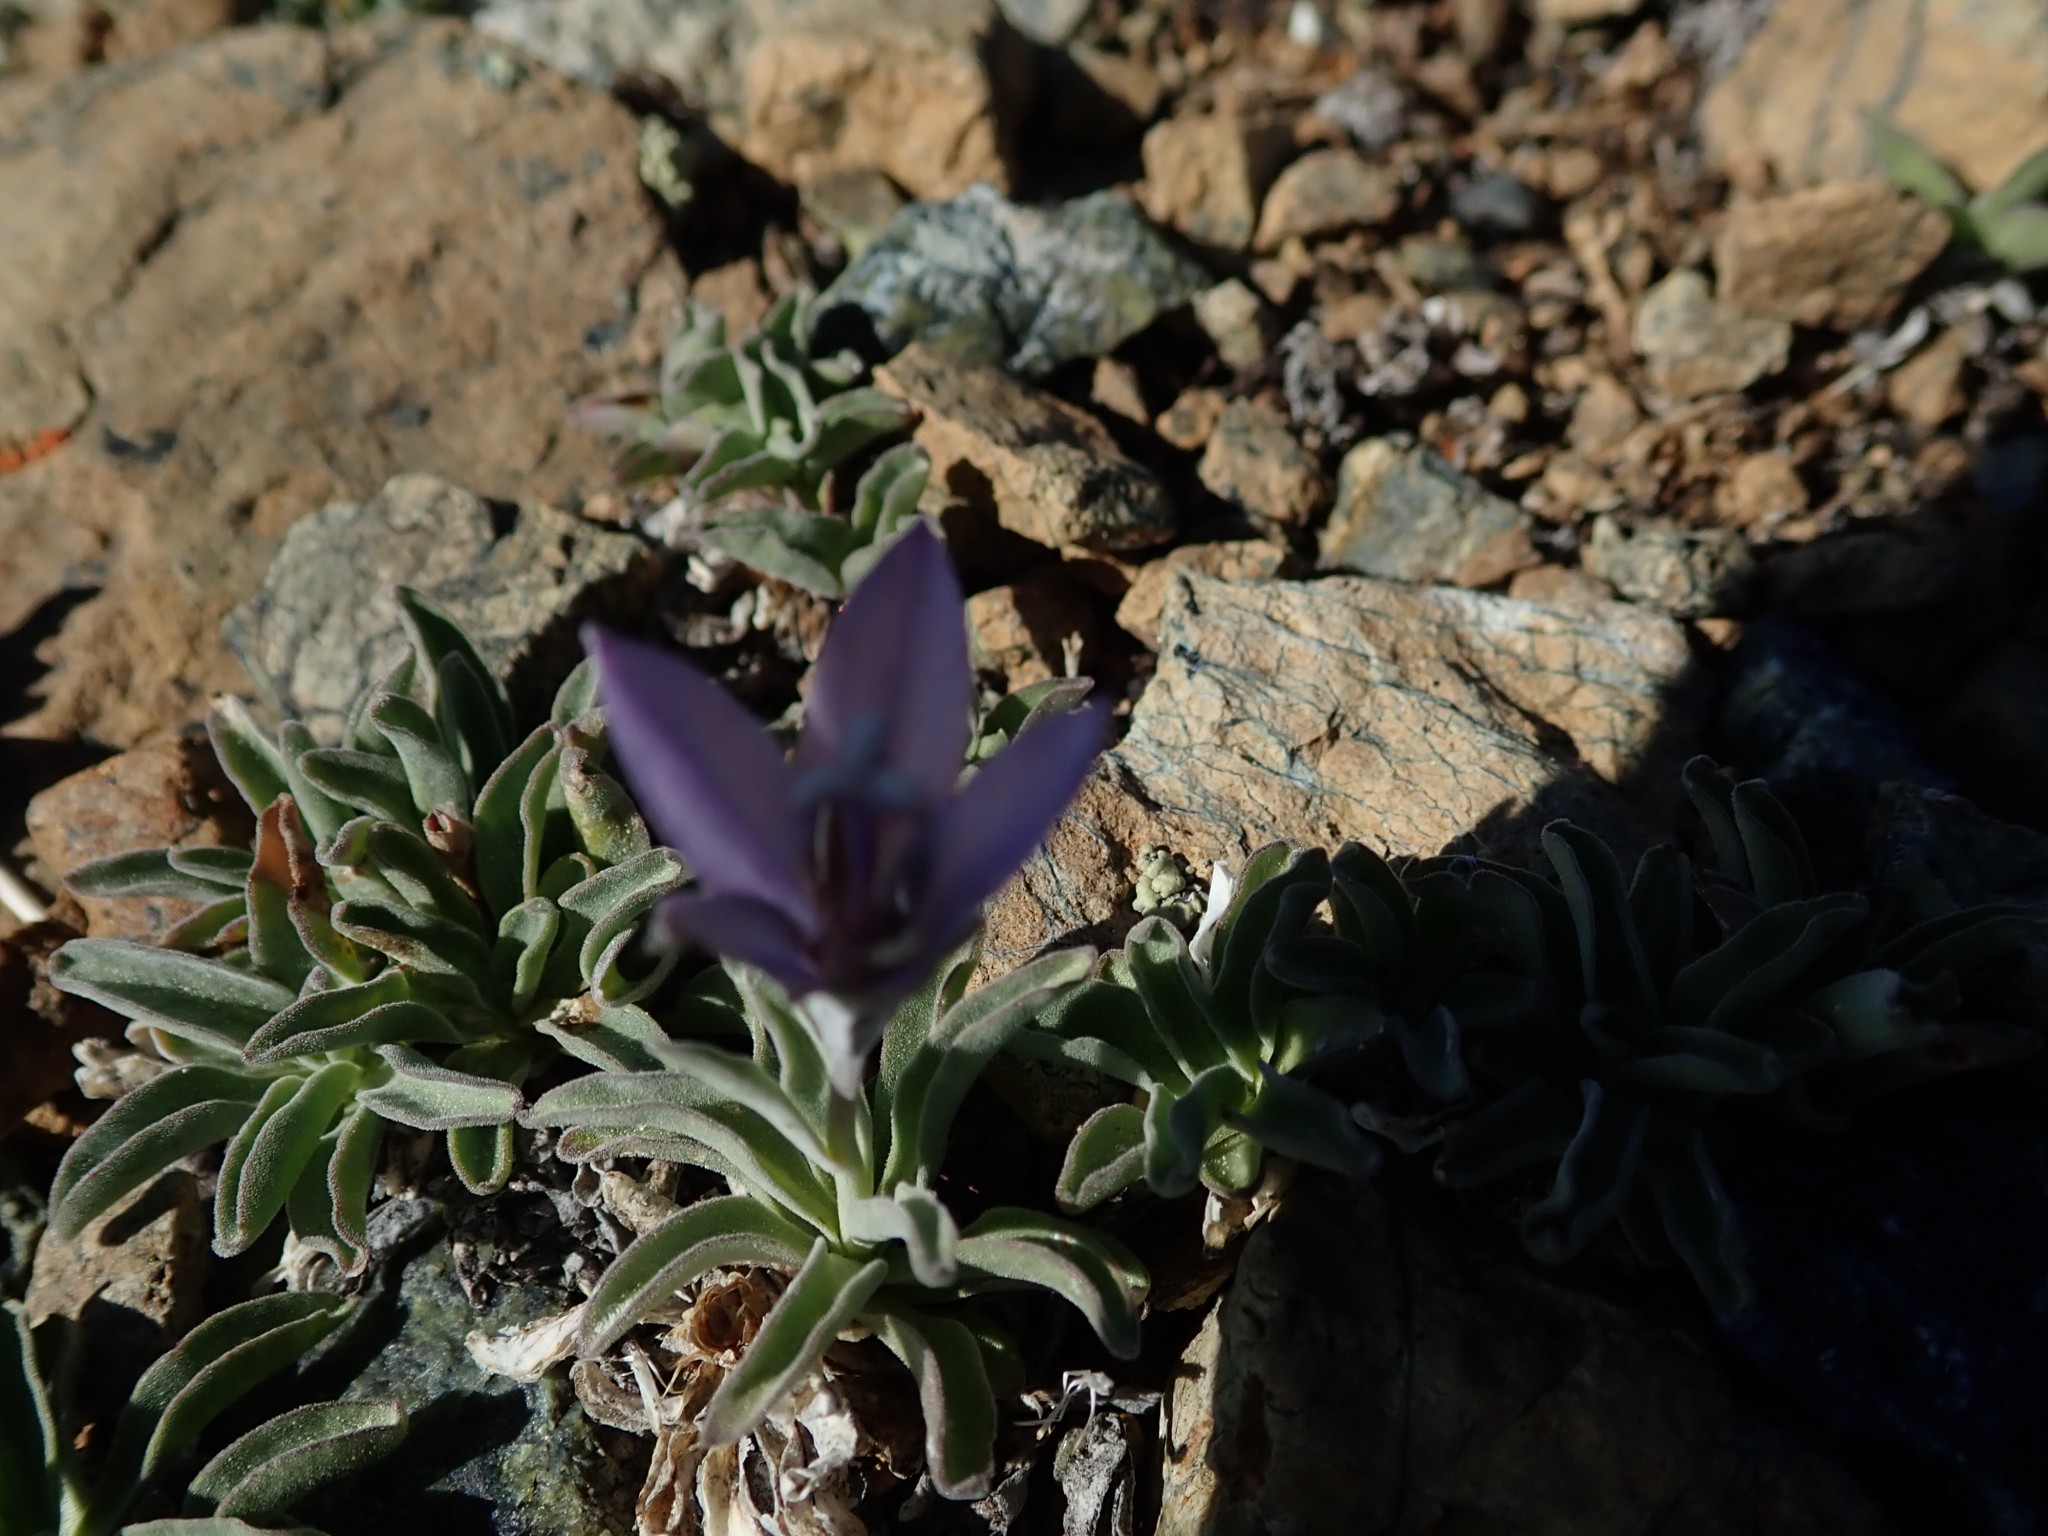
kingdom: Plantae
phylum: Tracheophyta
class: Magnoliopsida
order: Asterales
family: Campanulaceae
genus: Campanula
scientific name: Campanula scabrella
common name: Downy alpine bellflower
